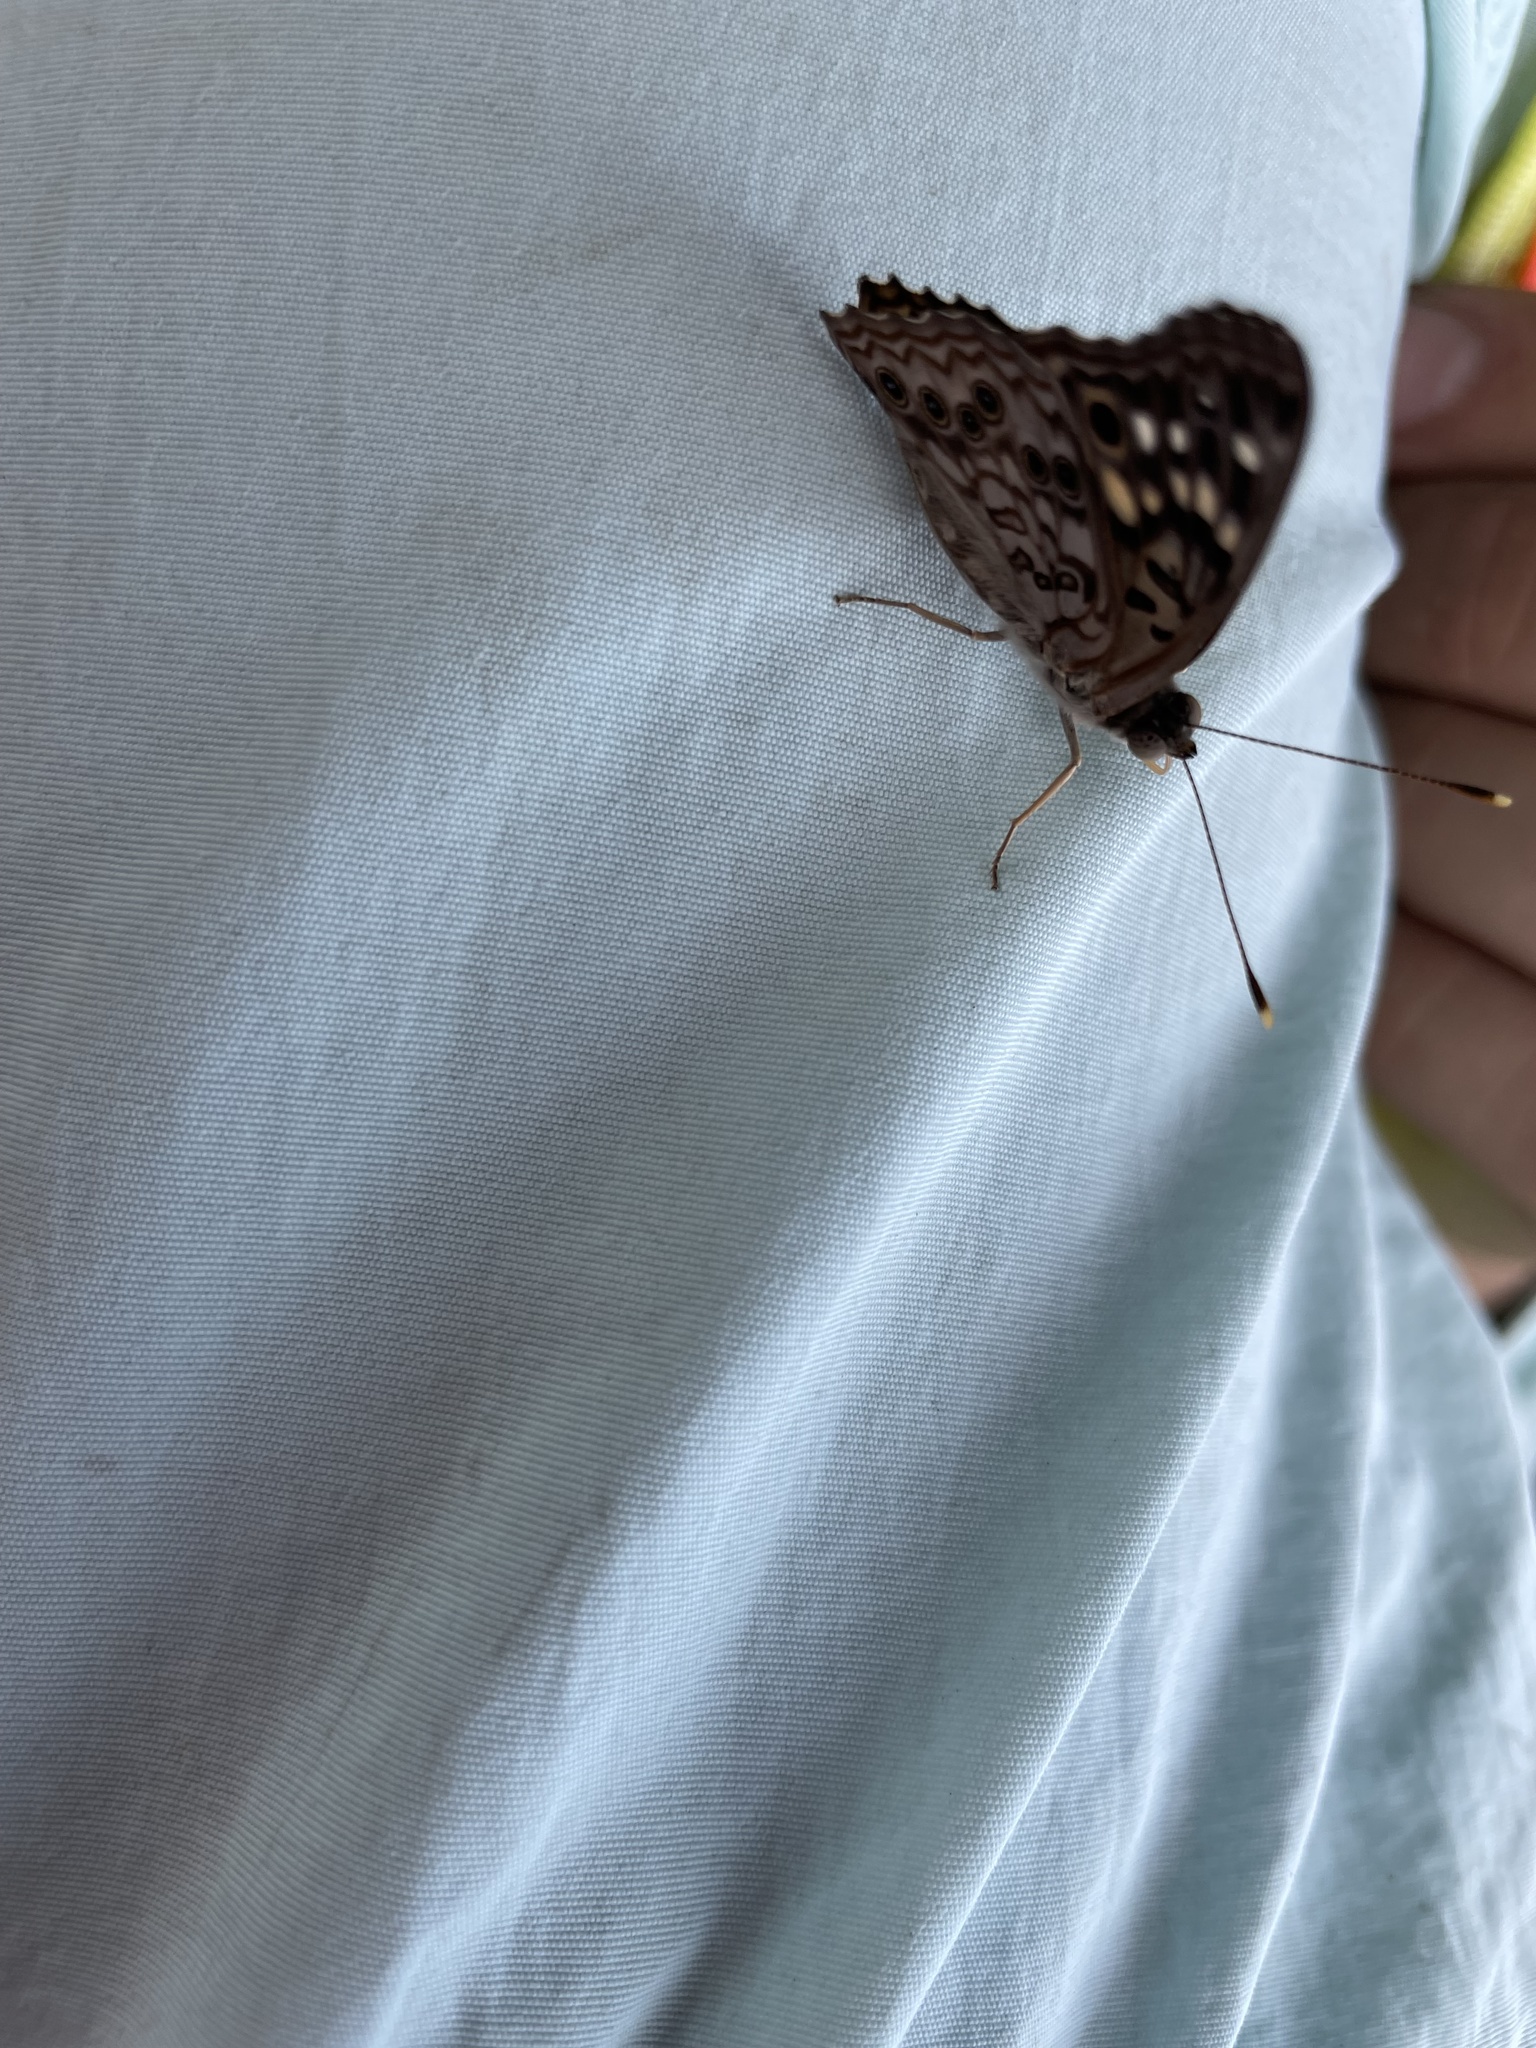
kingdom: Animalia
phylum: Arthropoda
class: Insecta
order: Lepidoptera
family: Nymphalidae
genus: Asterocampa
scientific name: Asterocampa celtis
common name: Hackberry emperor
